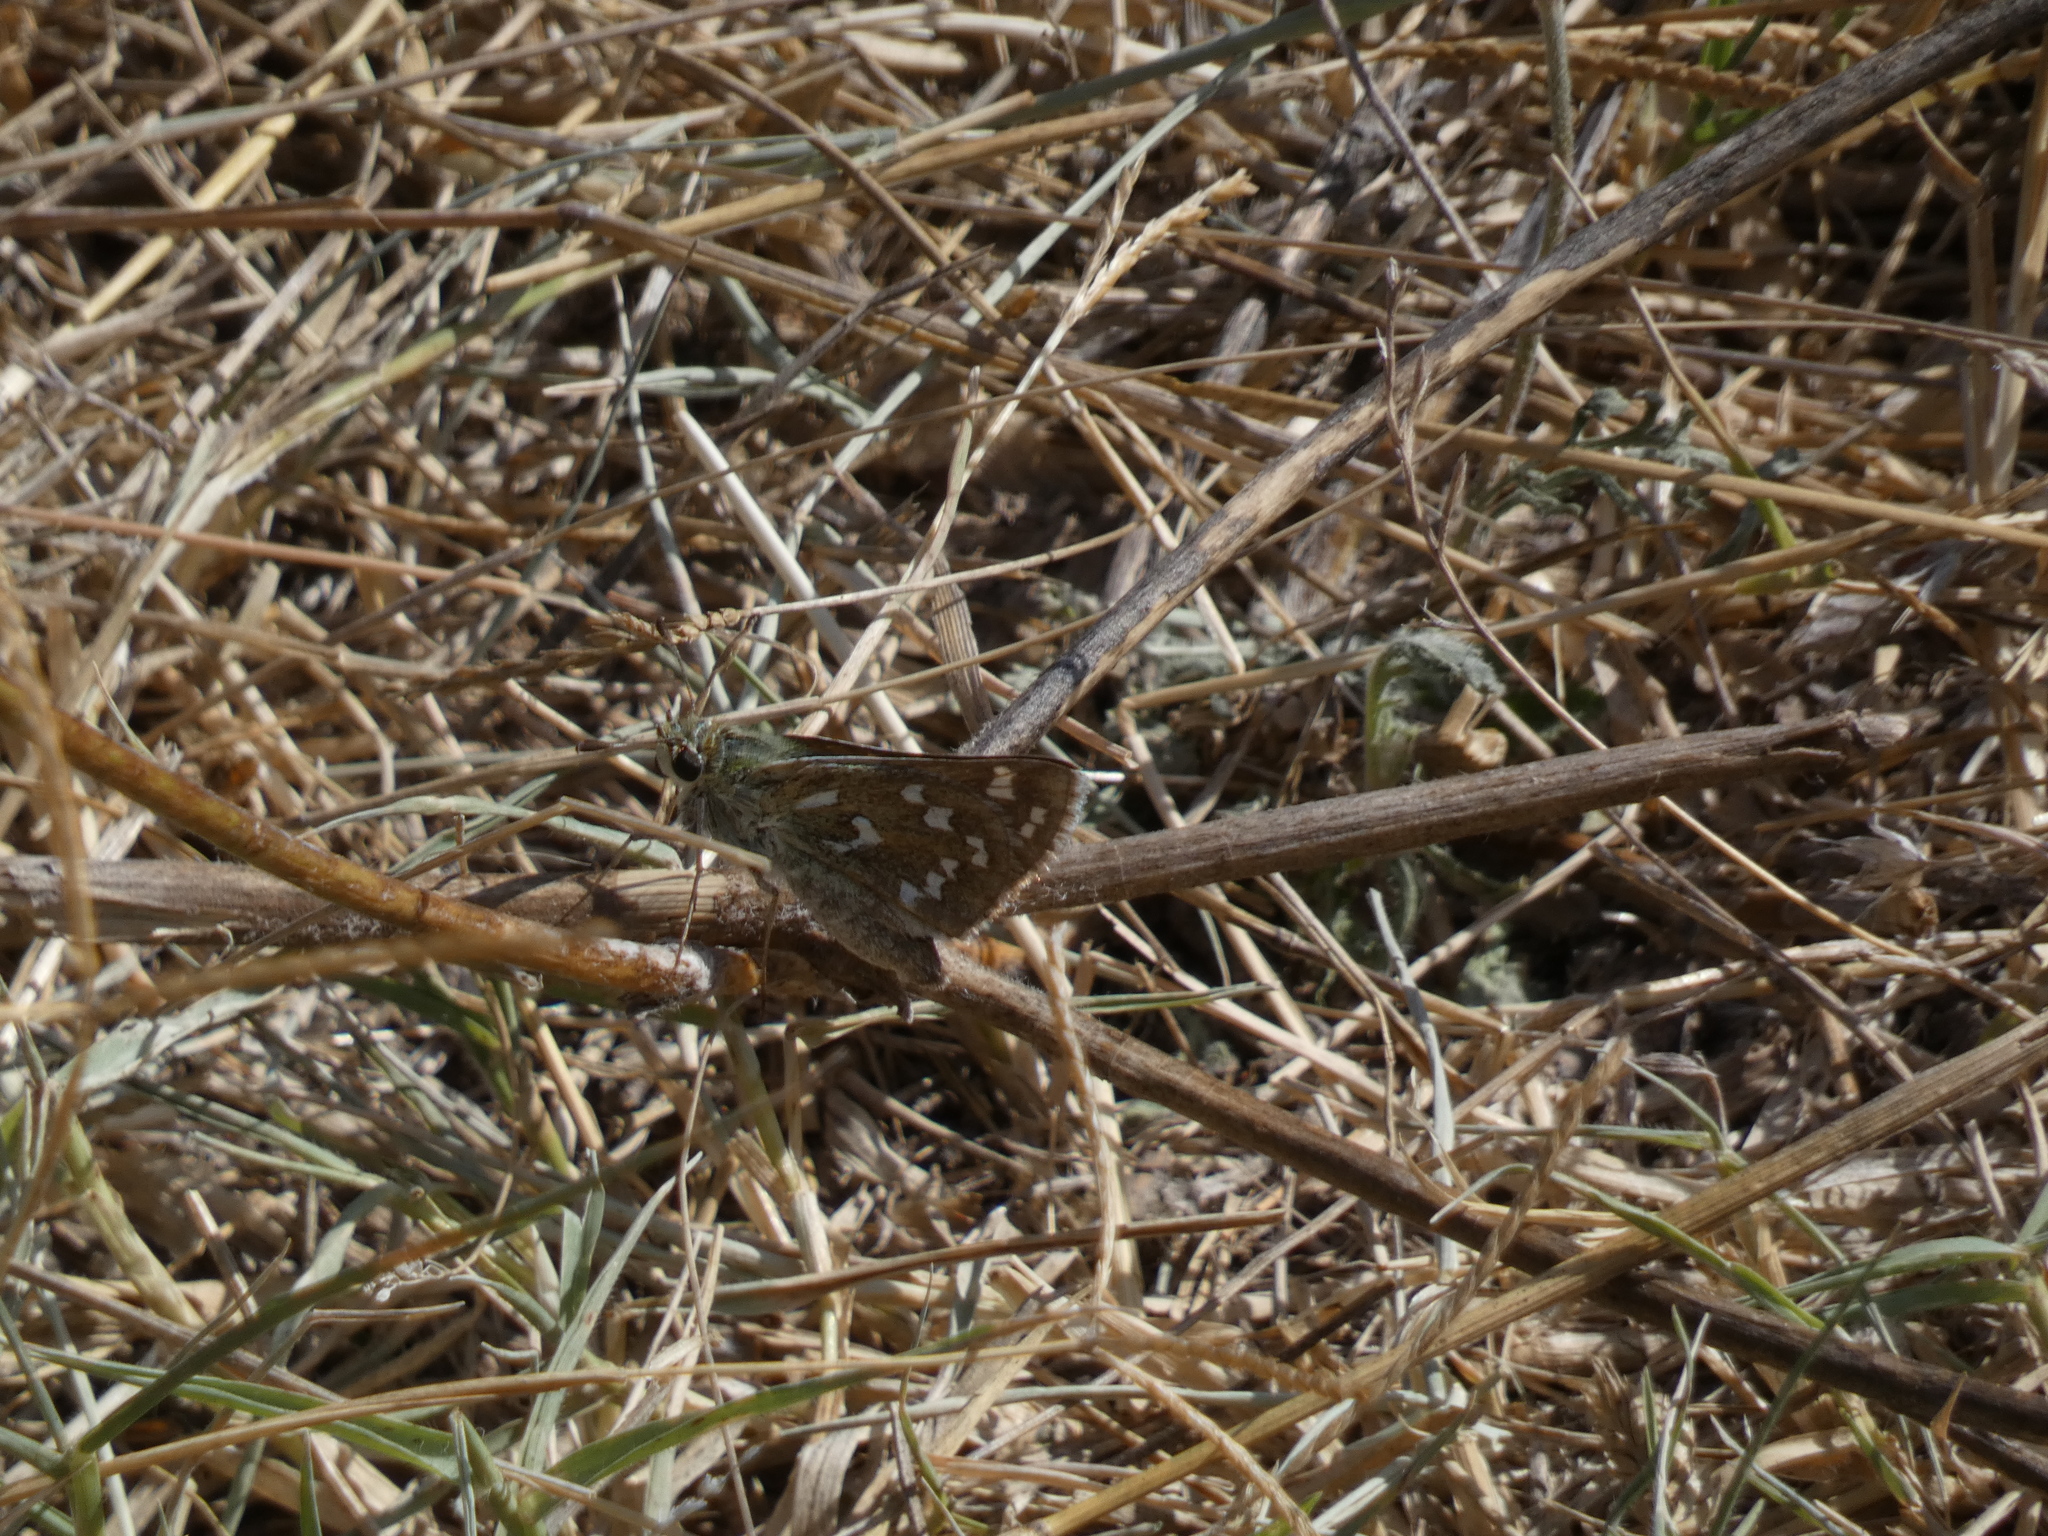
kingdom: Animalia
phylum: Arthropoda
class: Insecta
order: Lepidoptera
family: Hesperiidae
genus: Hesperia
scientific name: Hesperia comma
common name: Common branded skipper
